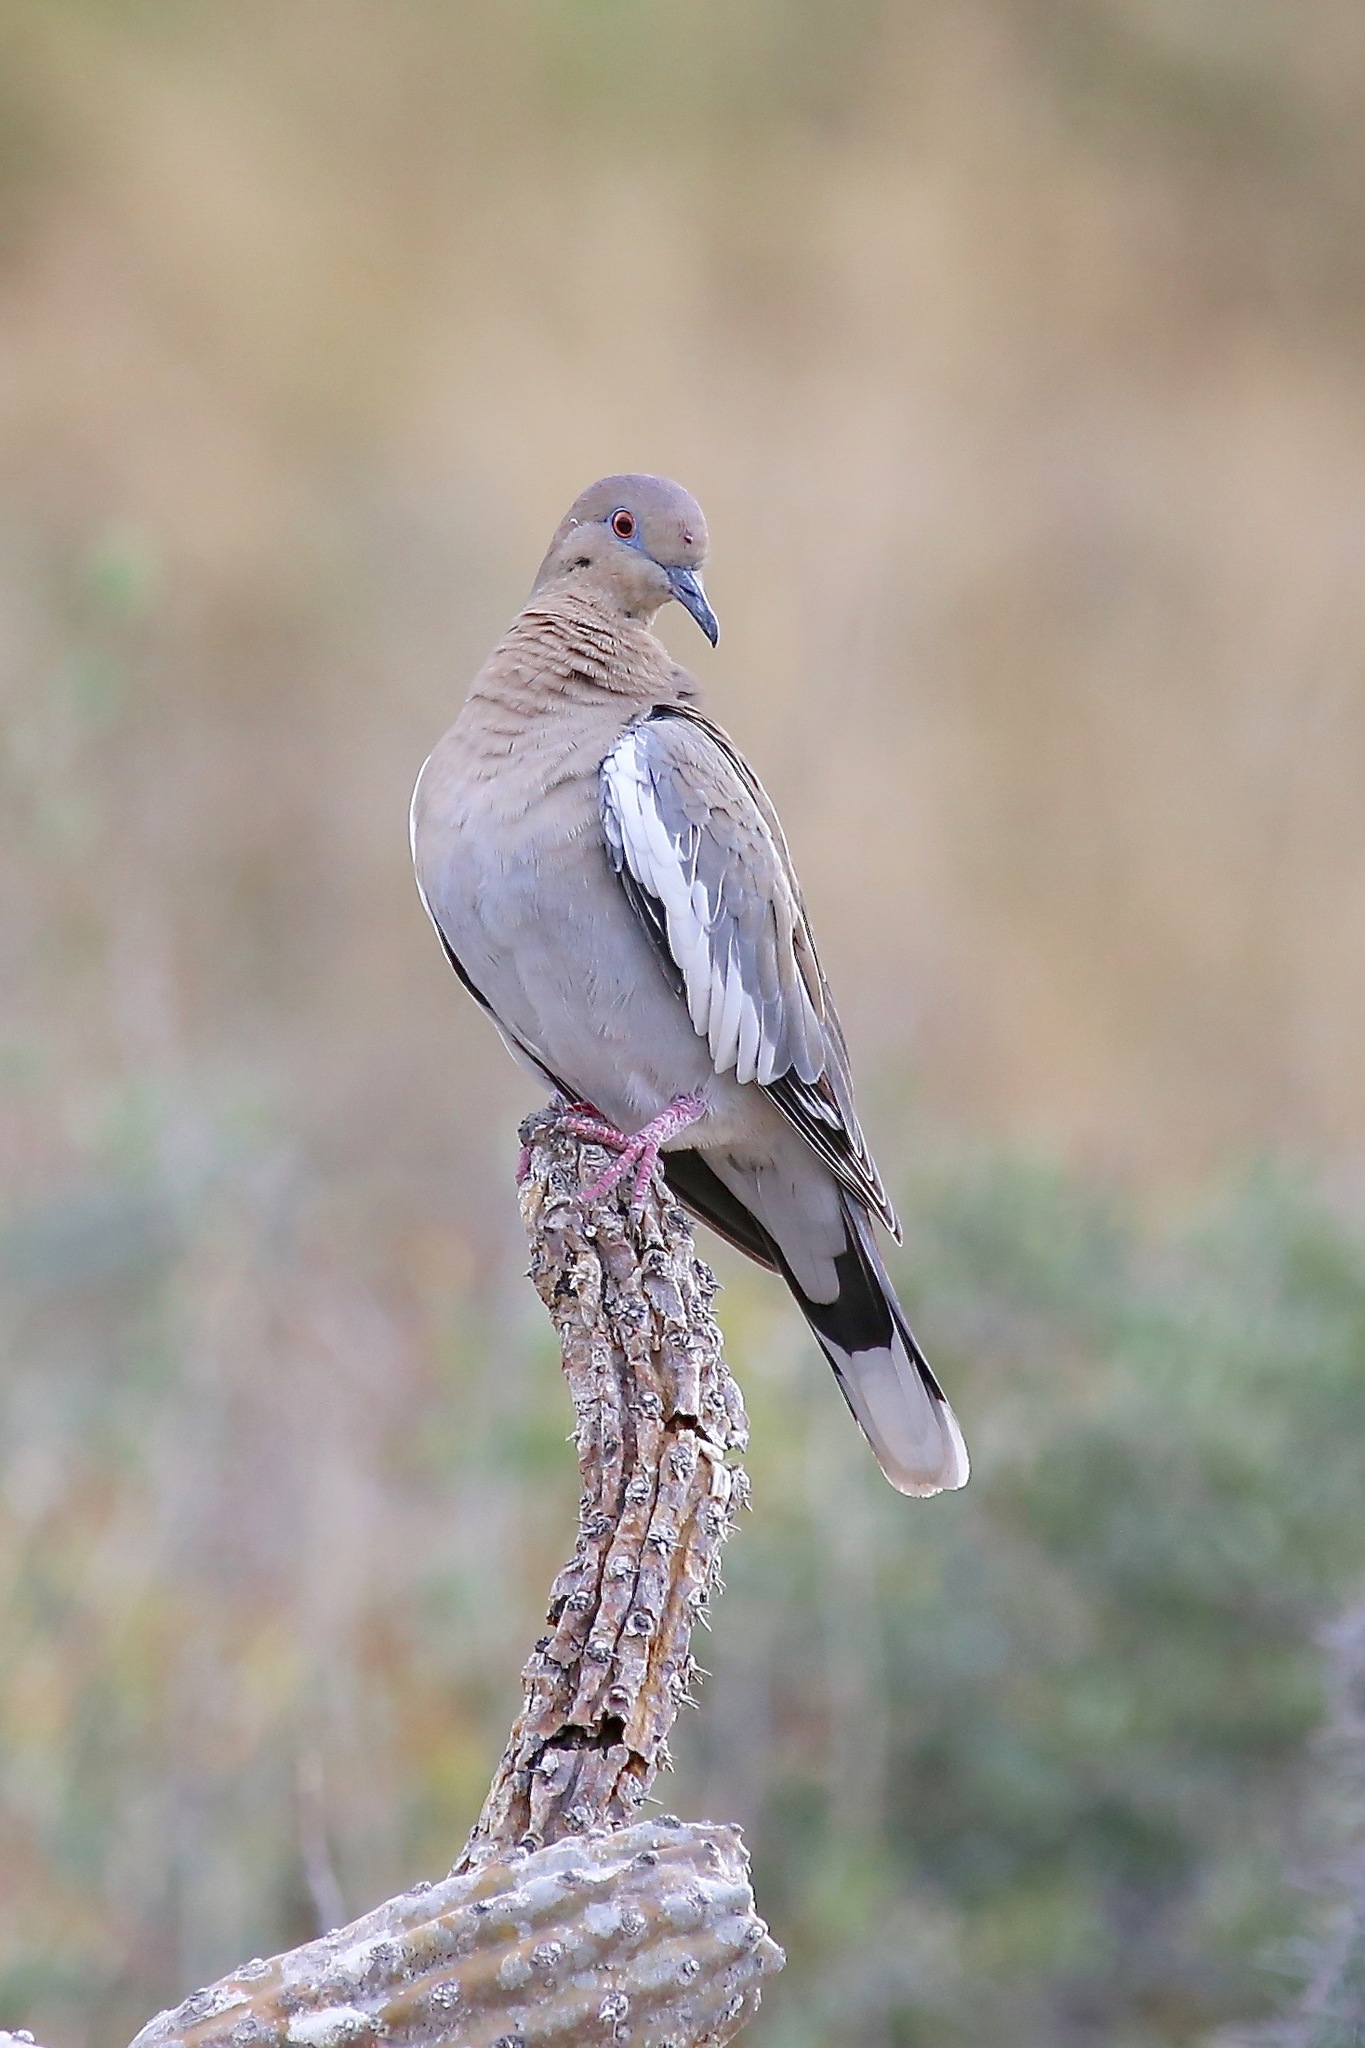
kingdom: Animalia
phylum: Chordata
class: Aves
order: Columbiformes
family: Columbidae
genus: Zenaida
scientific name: Zenaida asiatica
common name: White-winged dove
